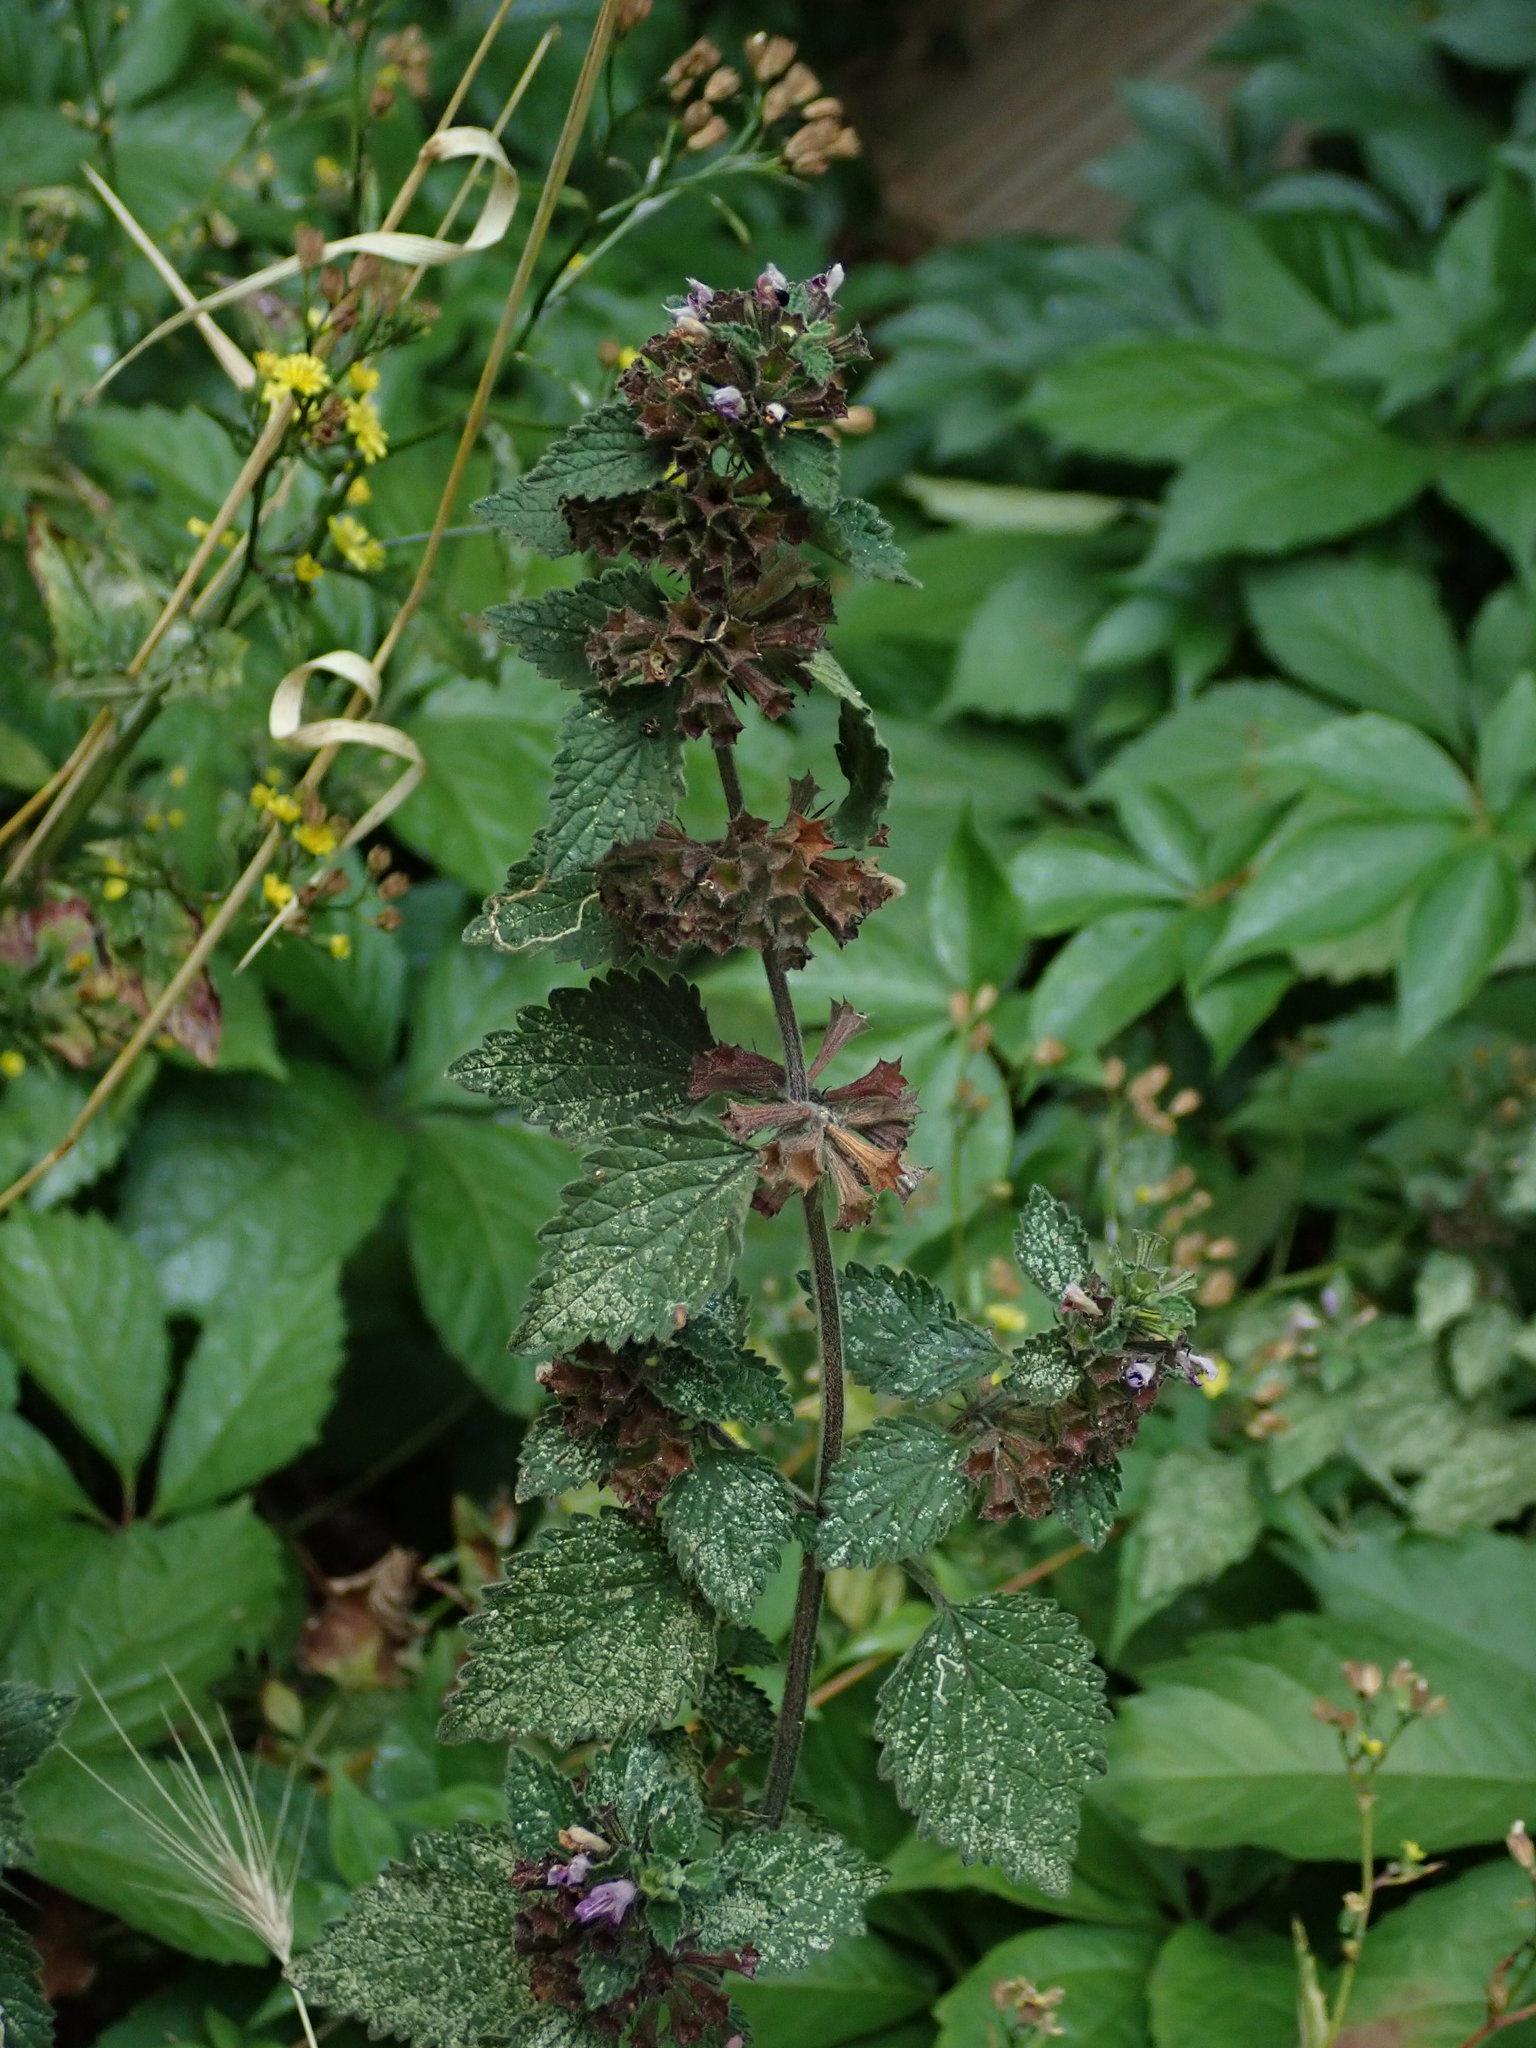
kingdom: Plantae
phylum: Tracheophyta
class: Magnoliopsida
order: Lamiales
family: Lamiaceae
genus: Ballota
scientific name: Ballota nigra
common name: Black horehound
